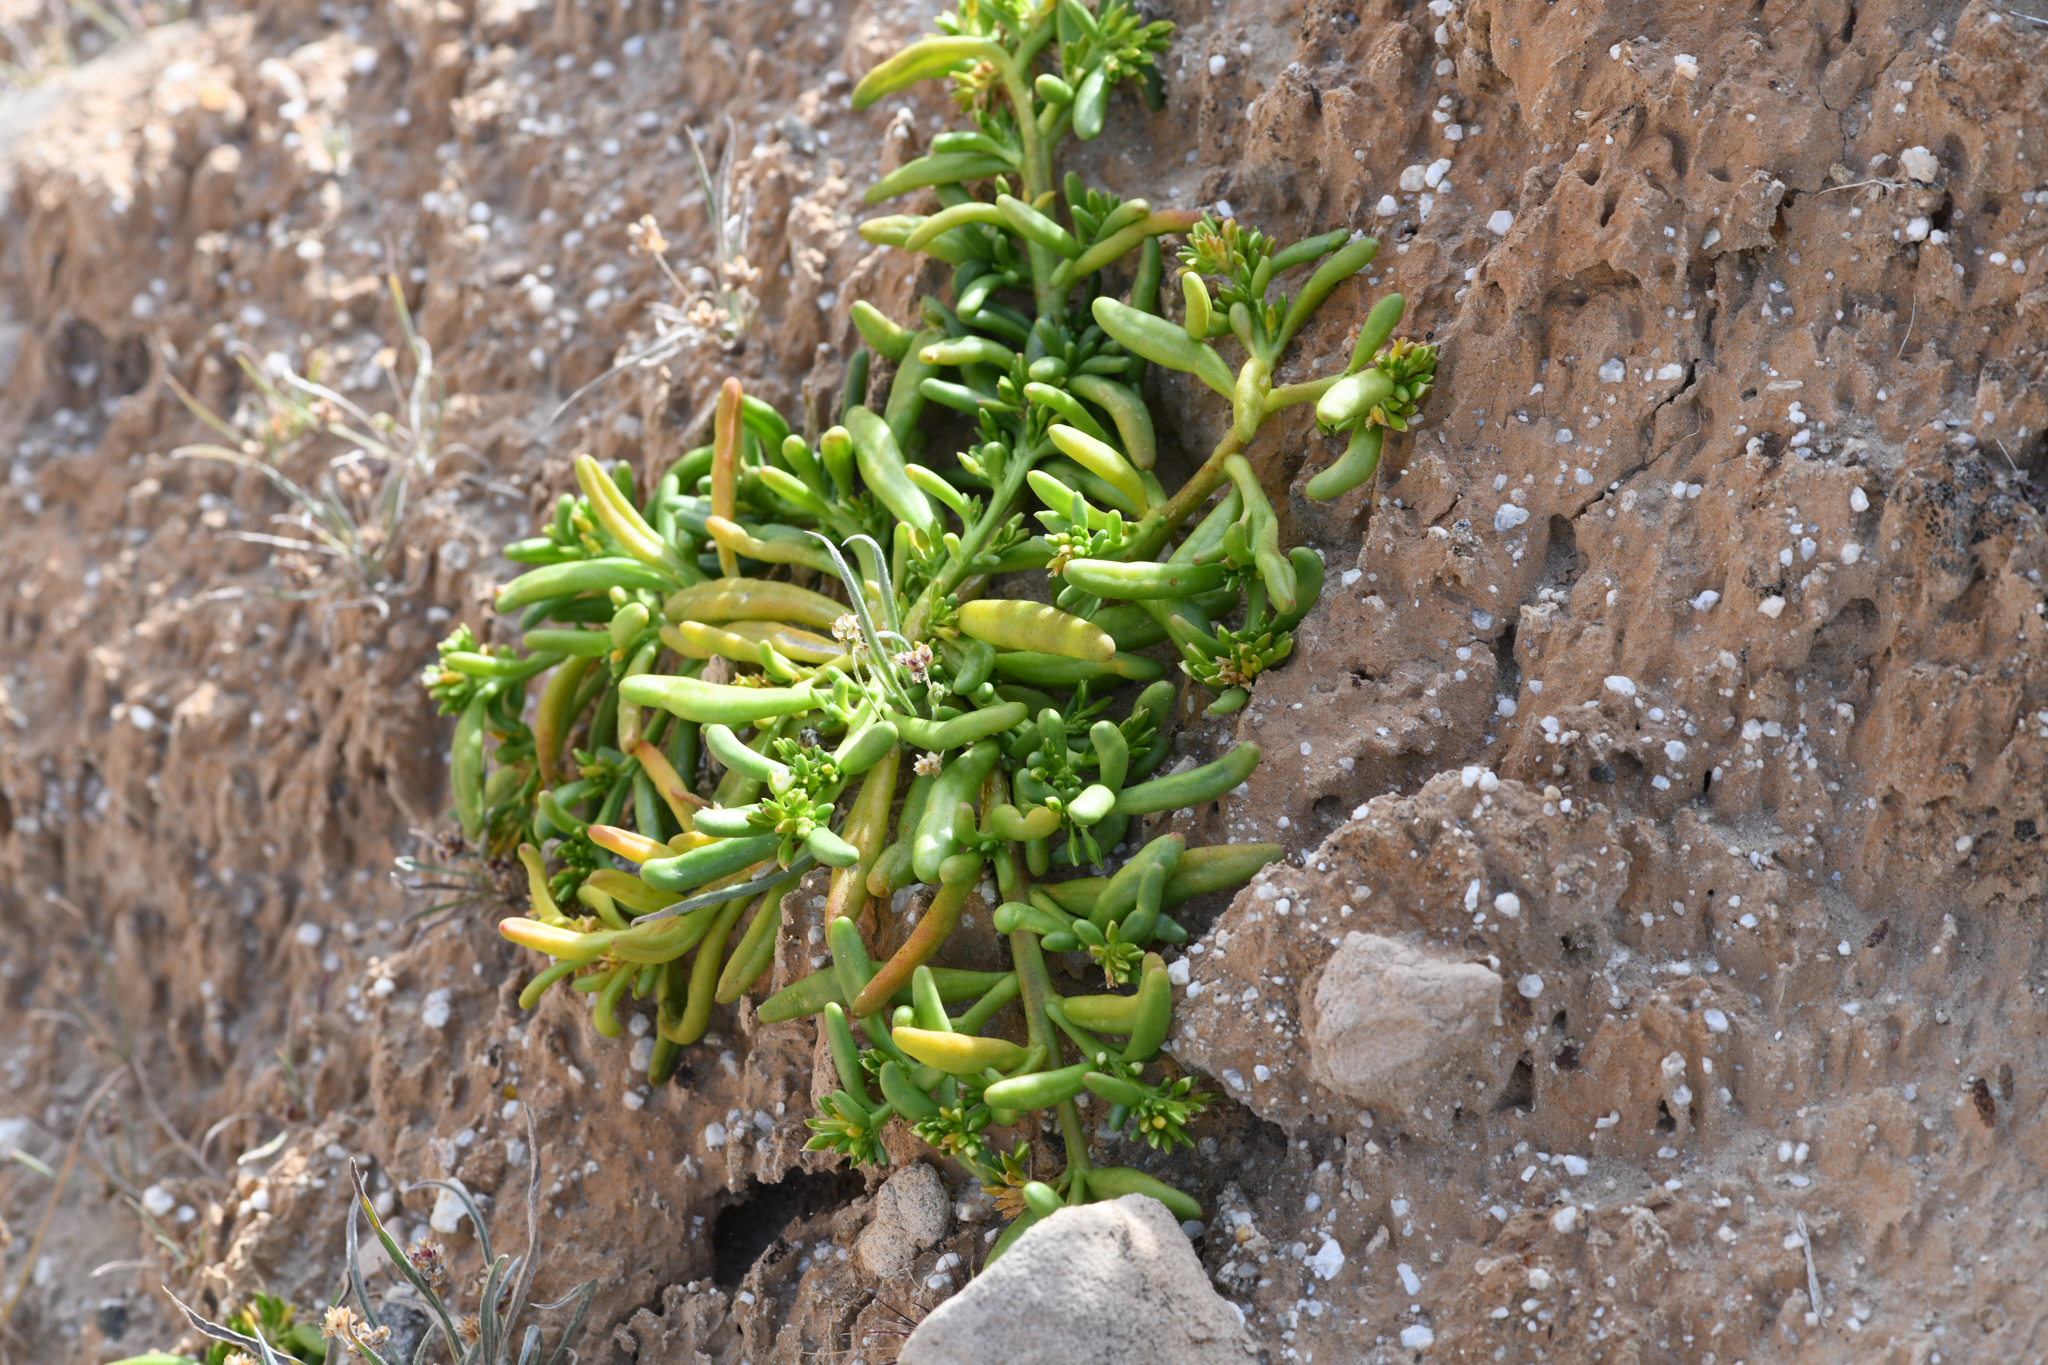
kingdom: Plantae
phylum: Tracheophyta
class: Magnoliopsida
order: Caryophyllales
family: Montiaceae
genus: Thingia
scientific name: Thingia ambigua
